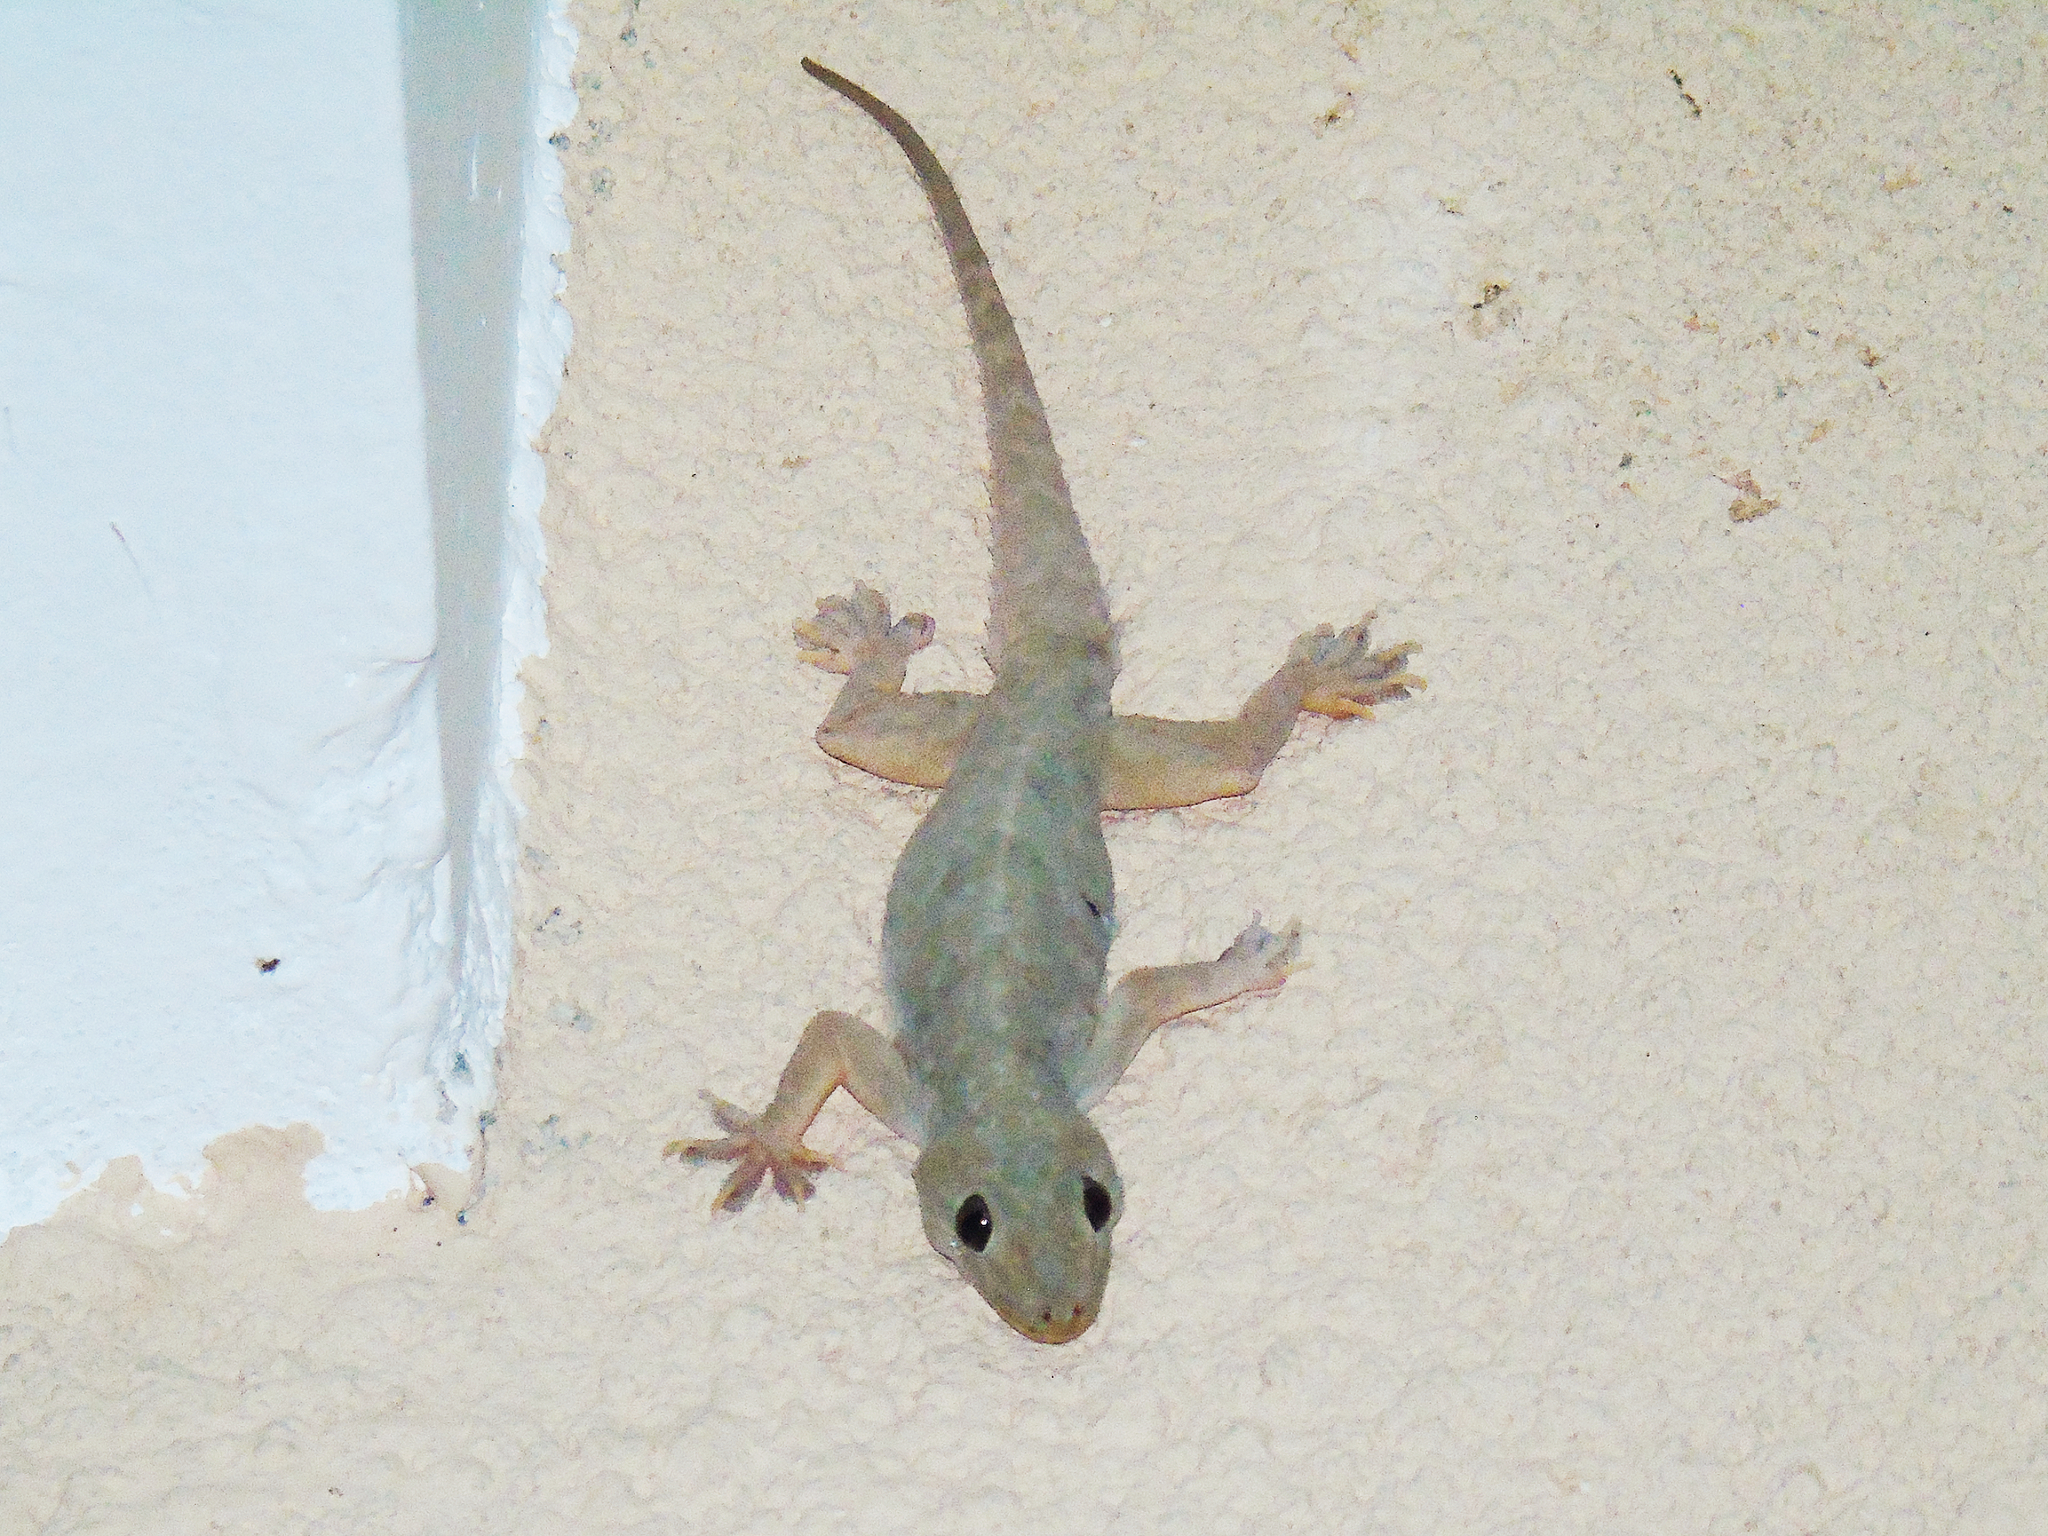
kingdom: Animalia
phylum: Chordata
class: Squamata
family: Gekkonidae
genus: Hemidactylus
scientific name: Hemidactylus flaviviridis
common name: Northern house gecko
